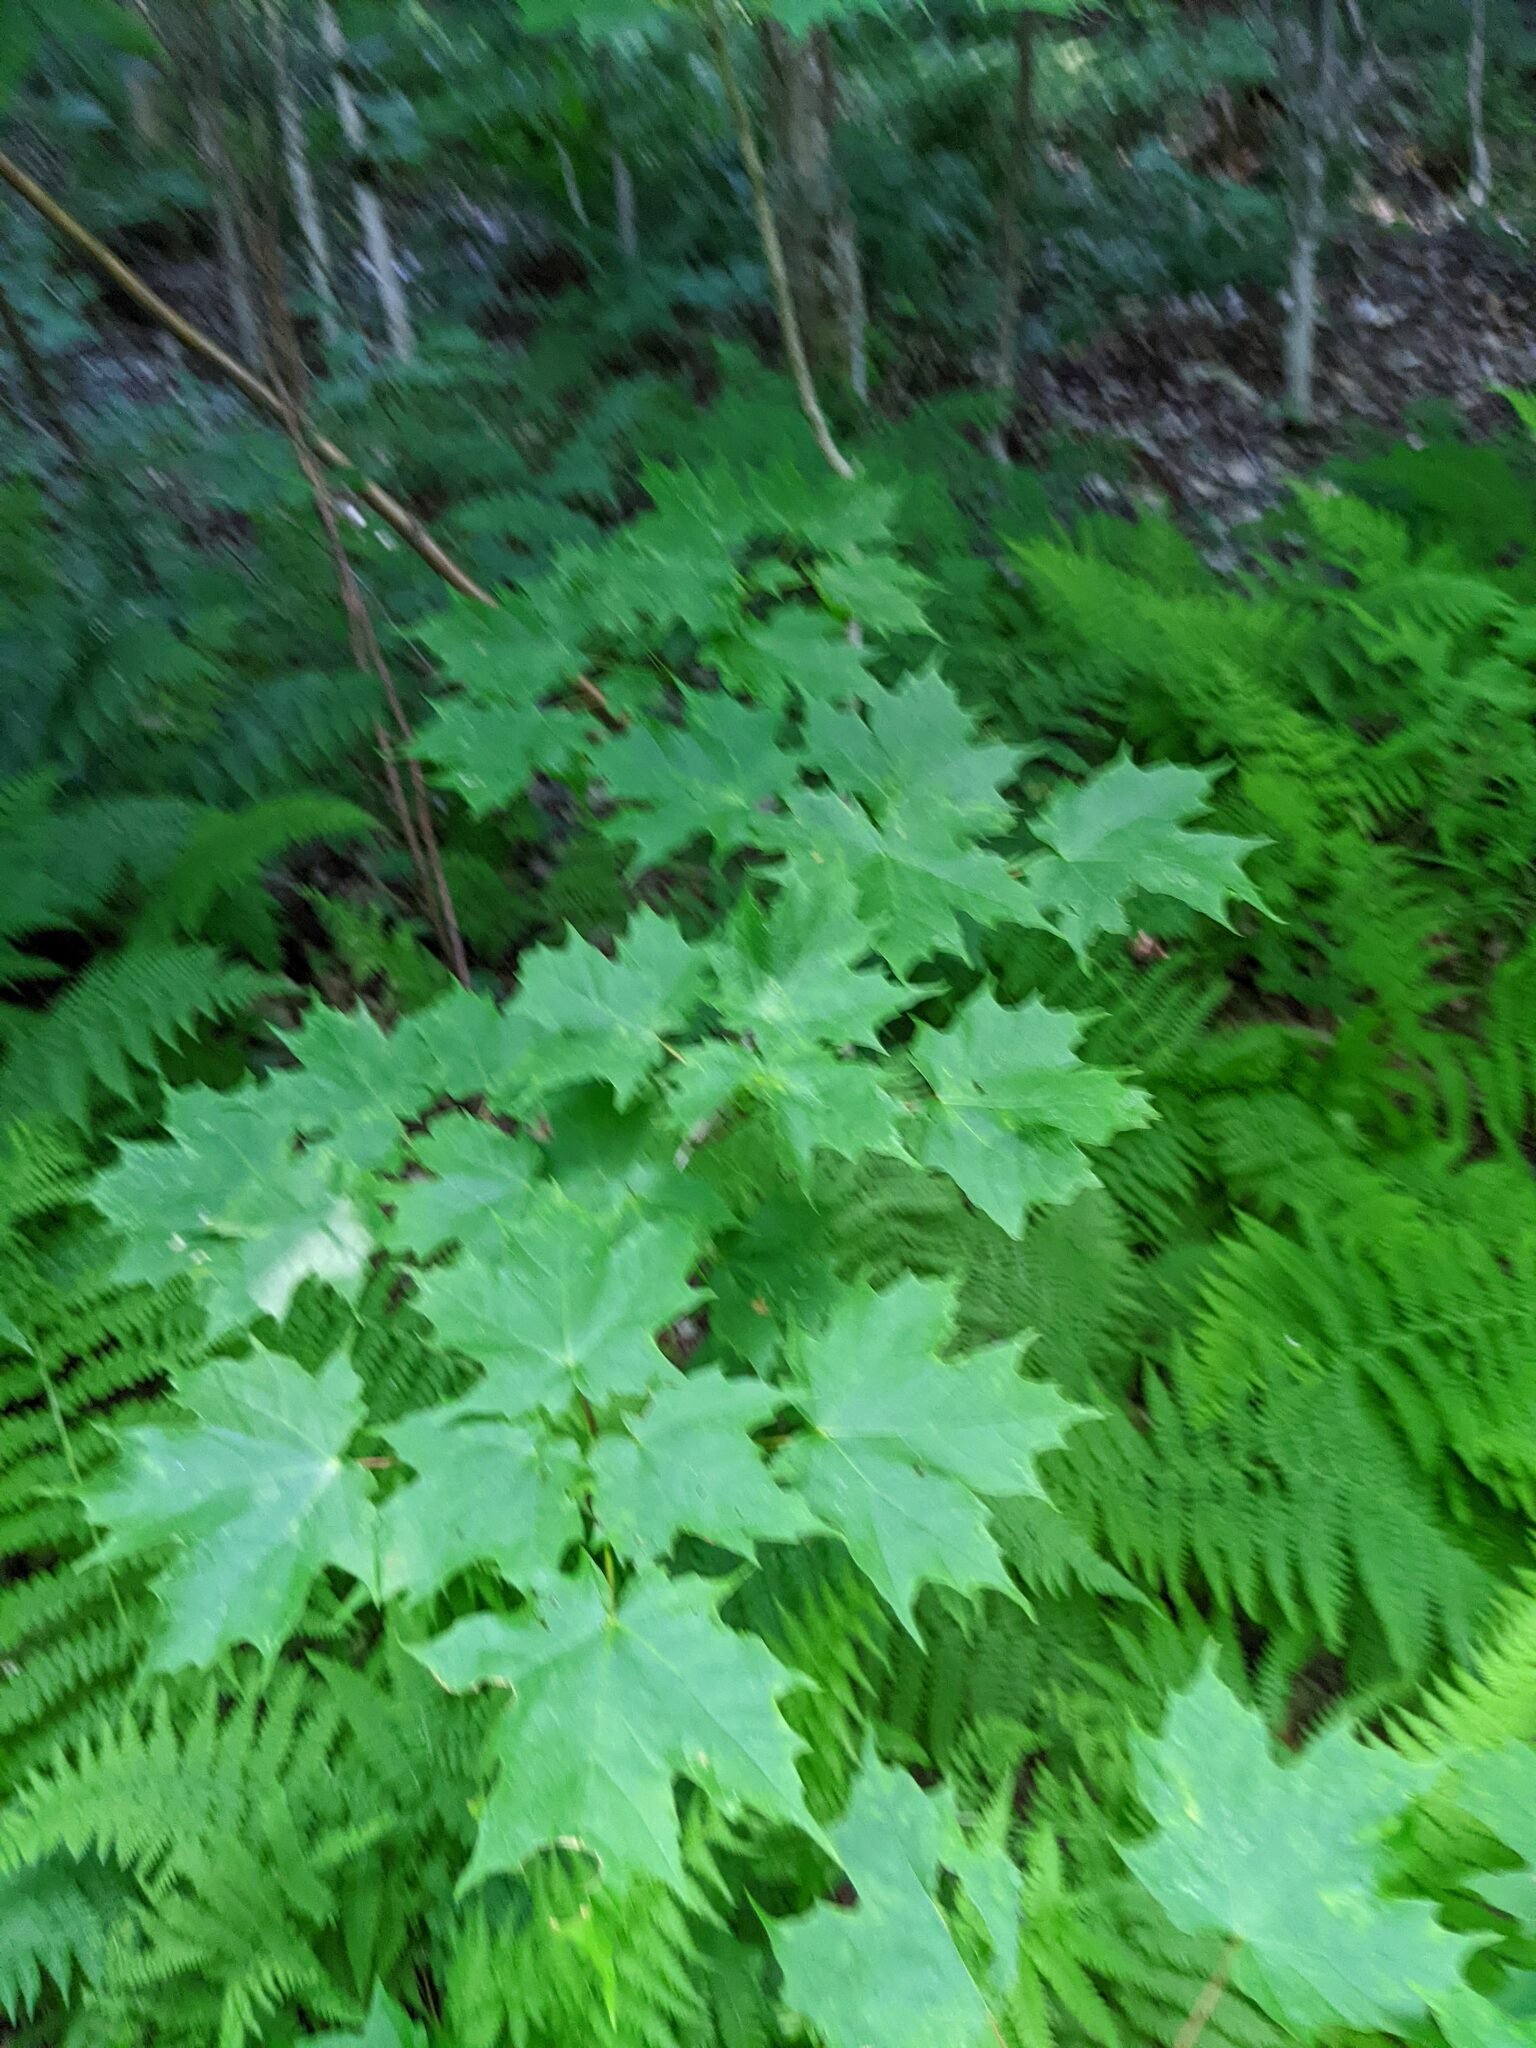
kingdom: Plantae
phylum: Tracheophyta
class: Magnoliopsida
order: Sapindales
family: Sapindaceae
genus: Acer
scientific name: Acer saccharum
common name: Sugar maple
